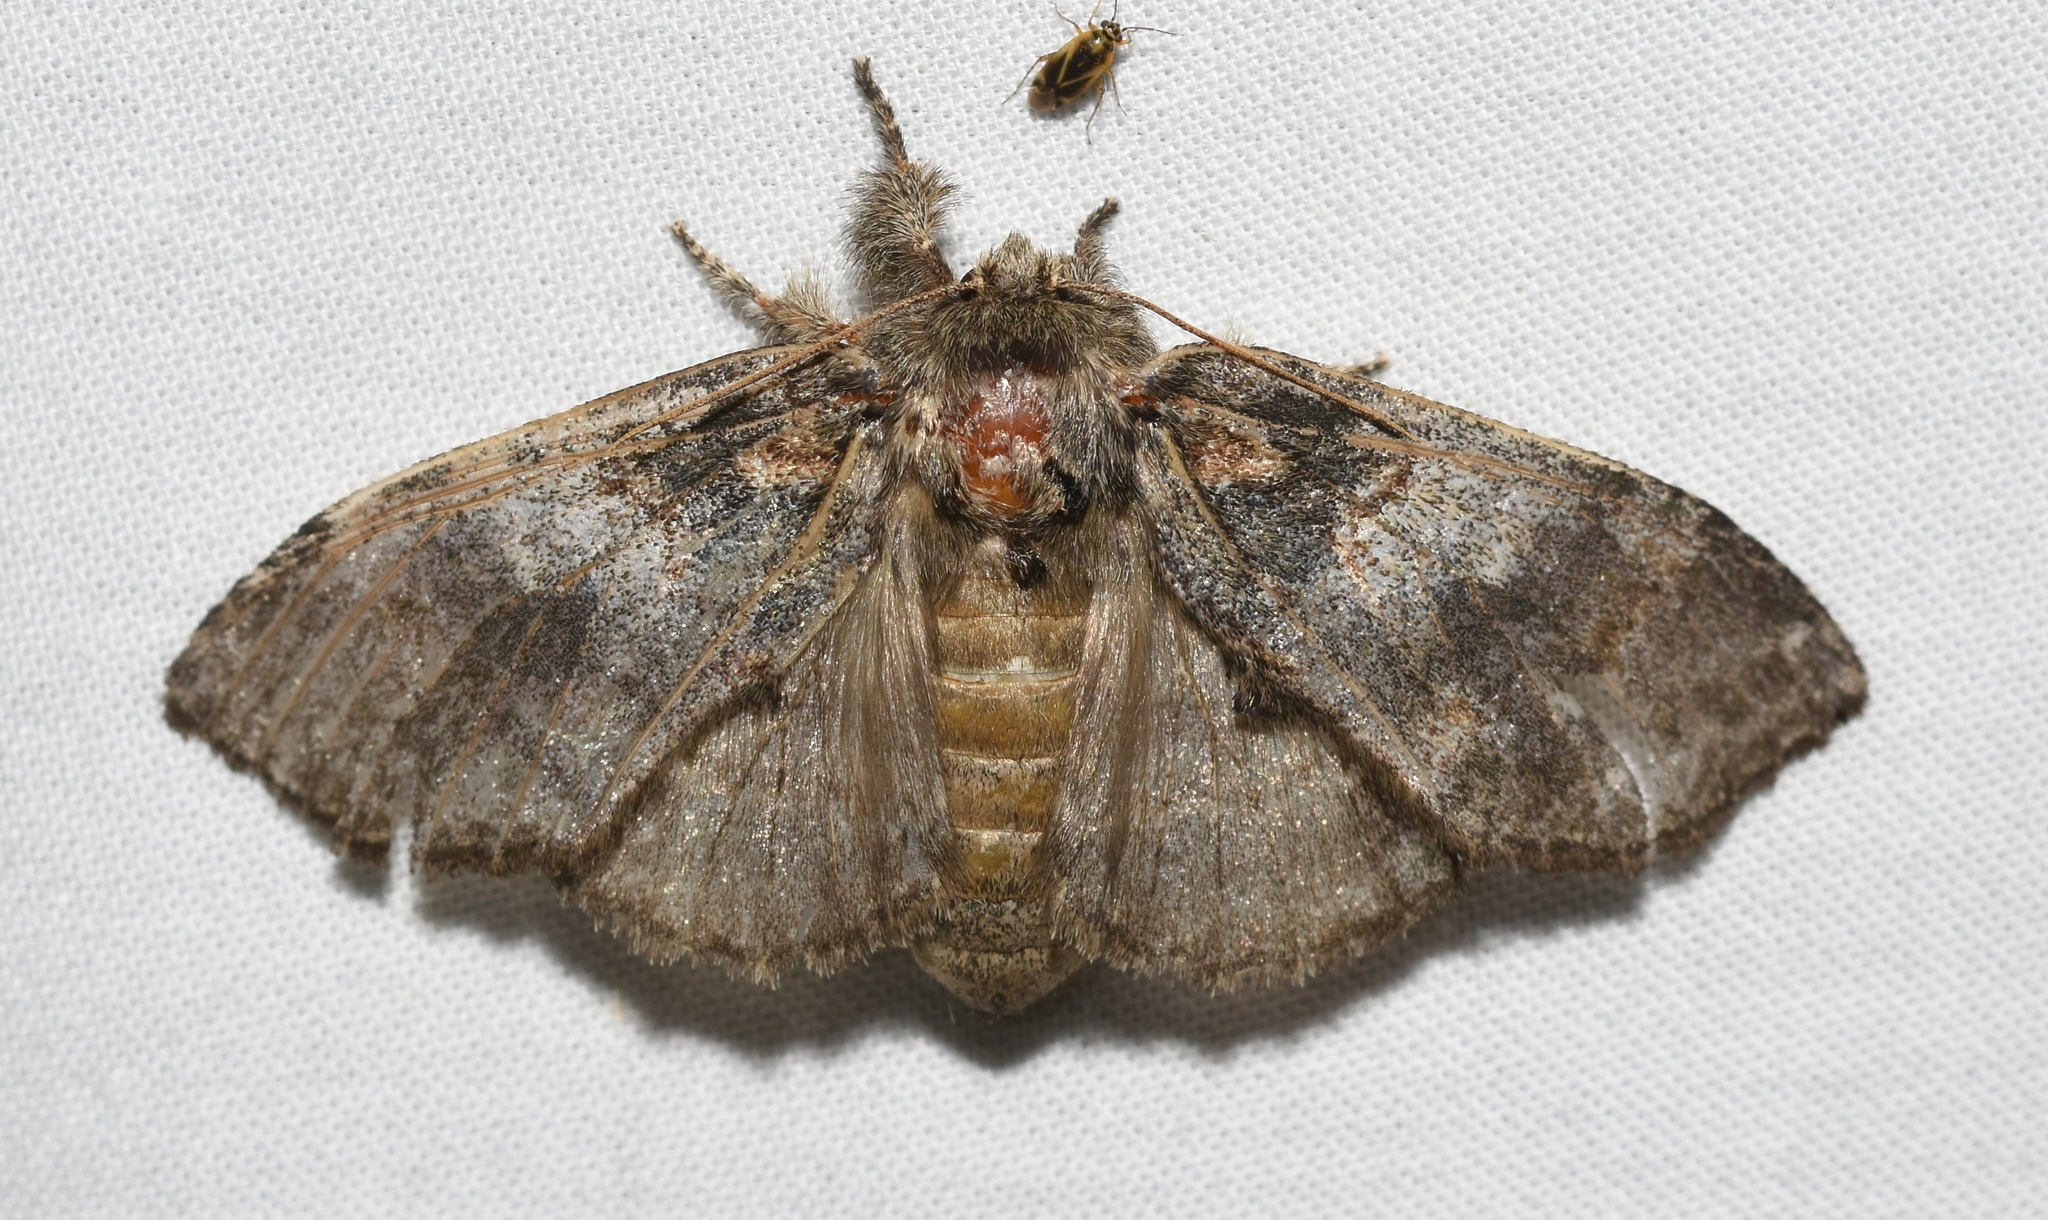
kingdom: Animalia
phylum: Arthropoda
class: Insecta
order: Lepidoptera
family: Notodontidae
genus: Peridea
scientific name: Peridea angulosa
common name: Angulose prominent
